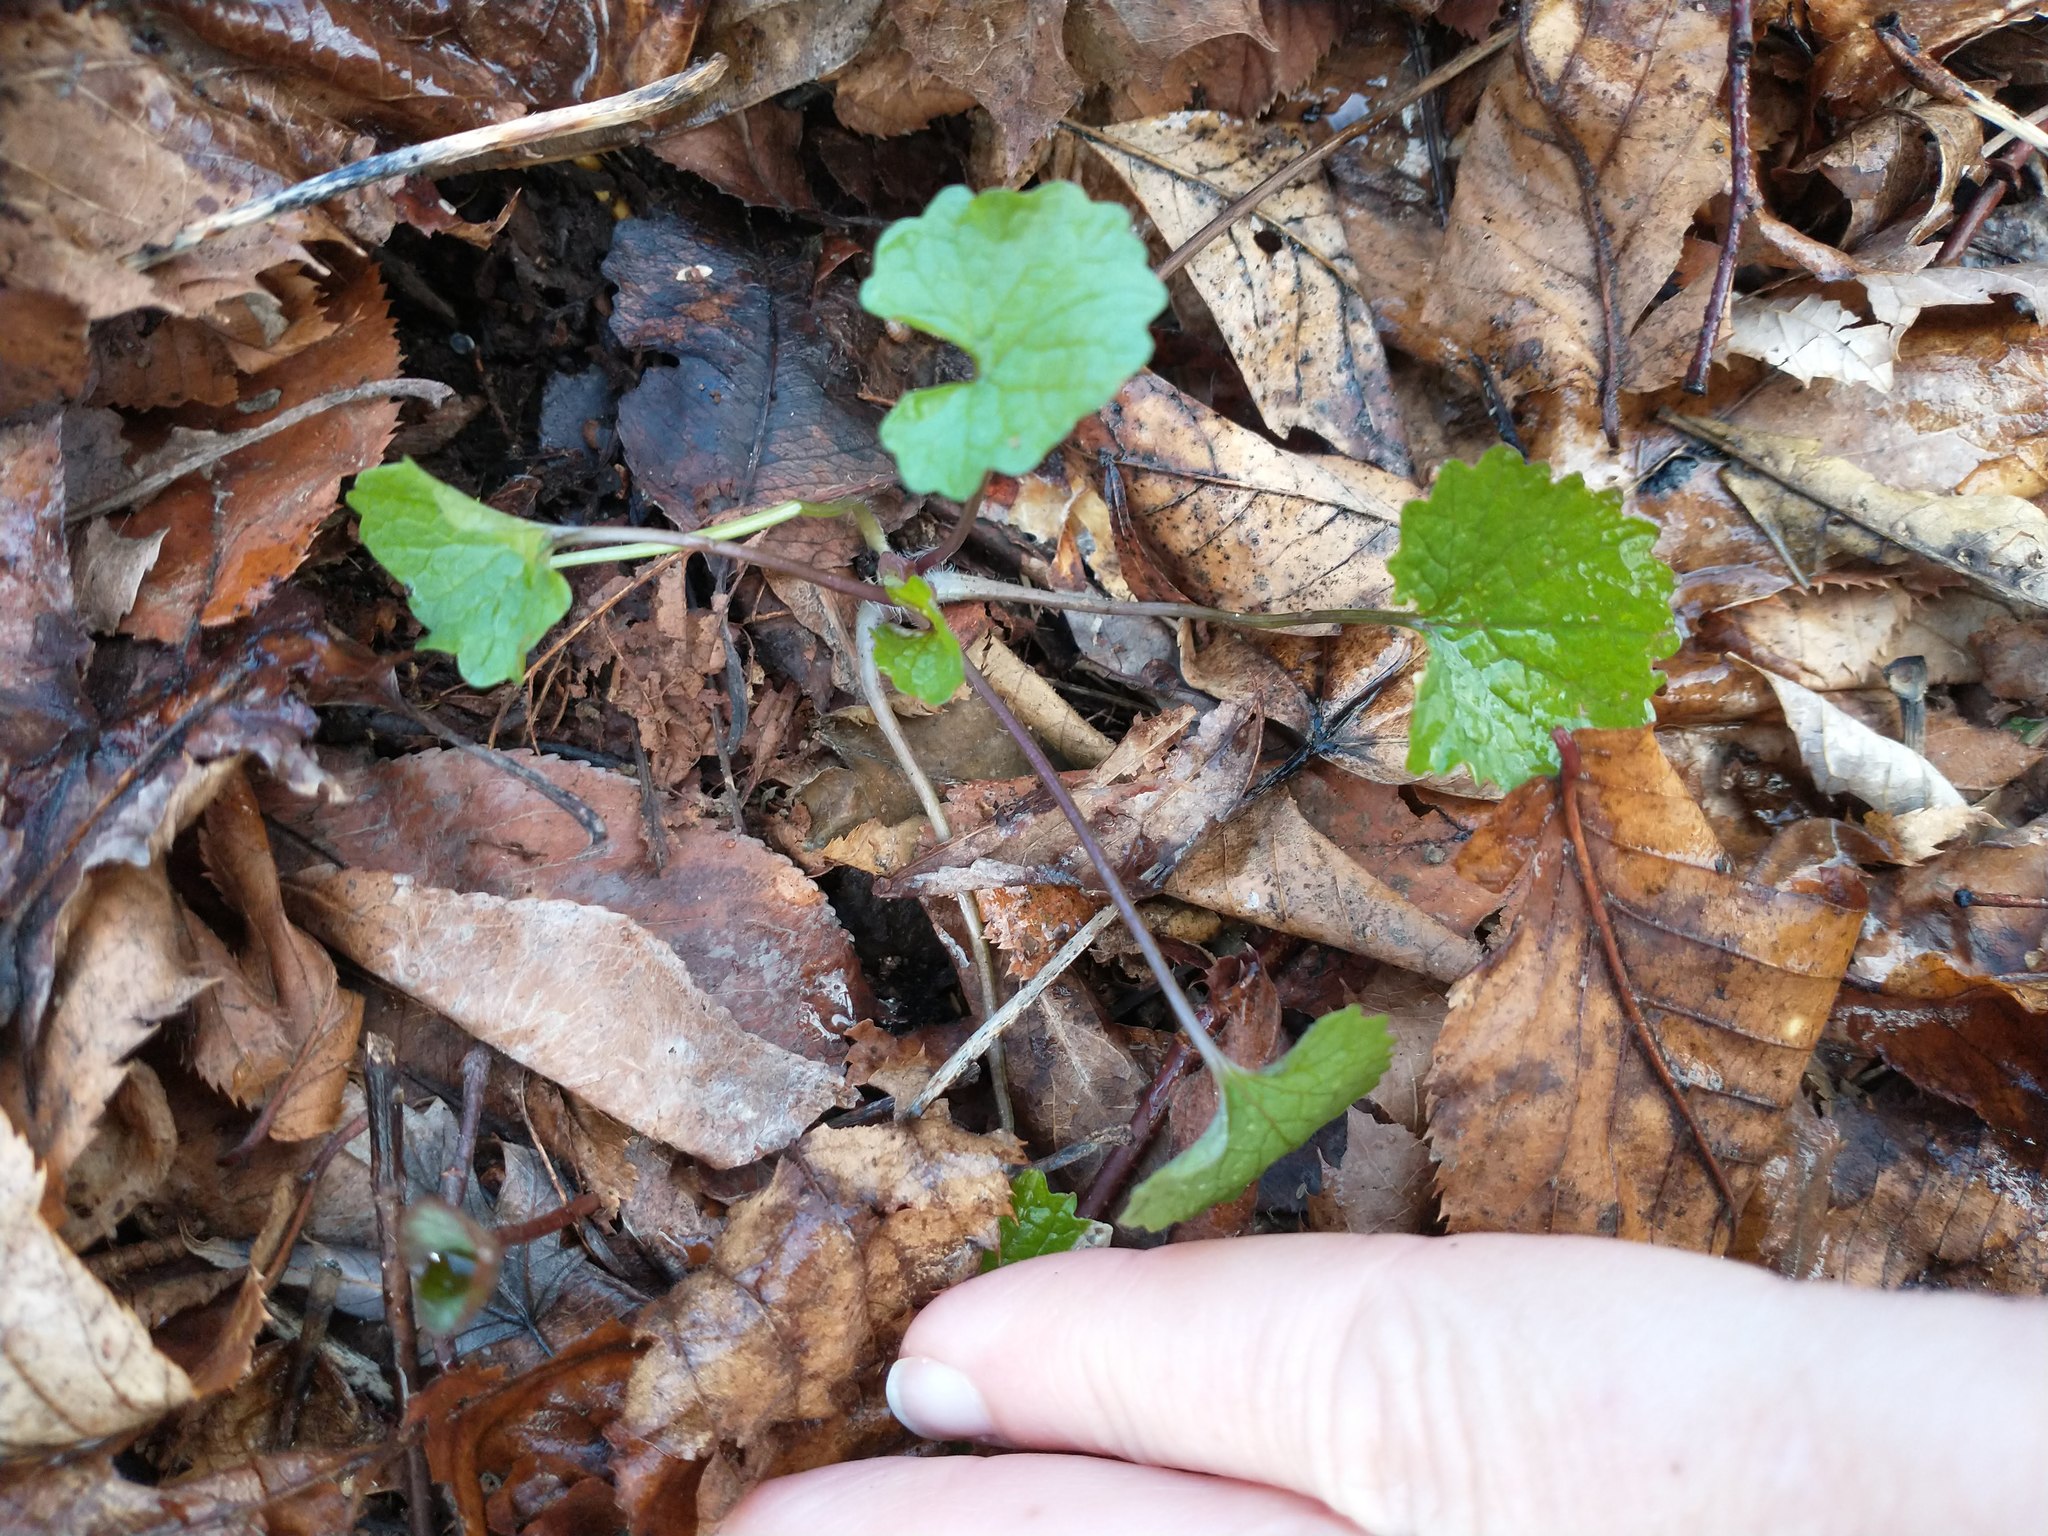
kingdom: Plantae
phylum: Tracheophyta
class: Magnoliopsida
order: Brassicales
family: Brassicaceae
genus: Alliaria
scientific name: Alliaria petiolata
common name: Garlic mustard
